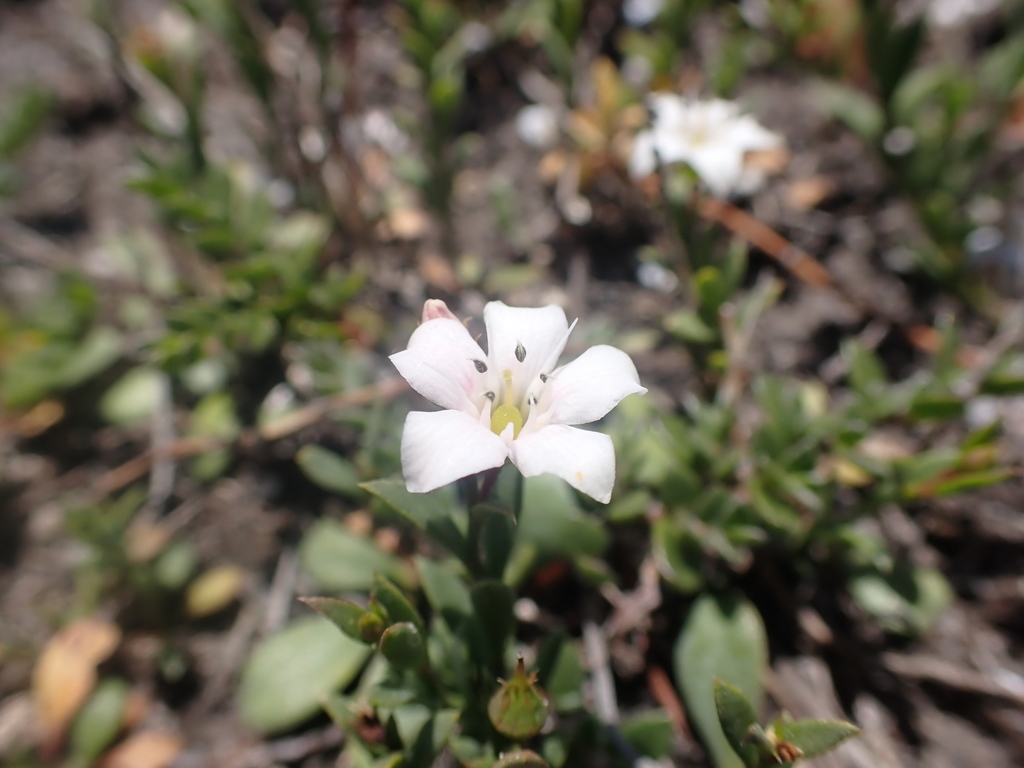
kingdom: Plantae
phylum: Tracheophyta
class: Magnoliopsida
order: Ericales
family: Primulaceae
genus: Samolus
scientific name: Samolus repens
